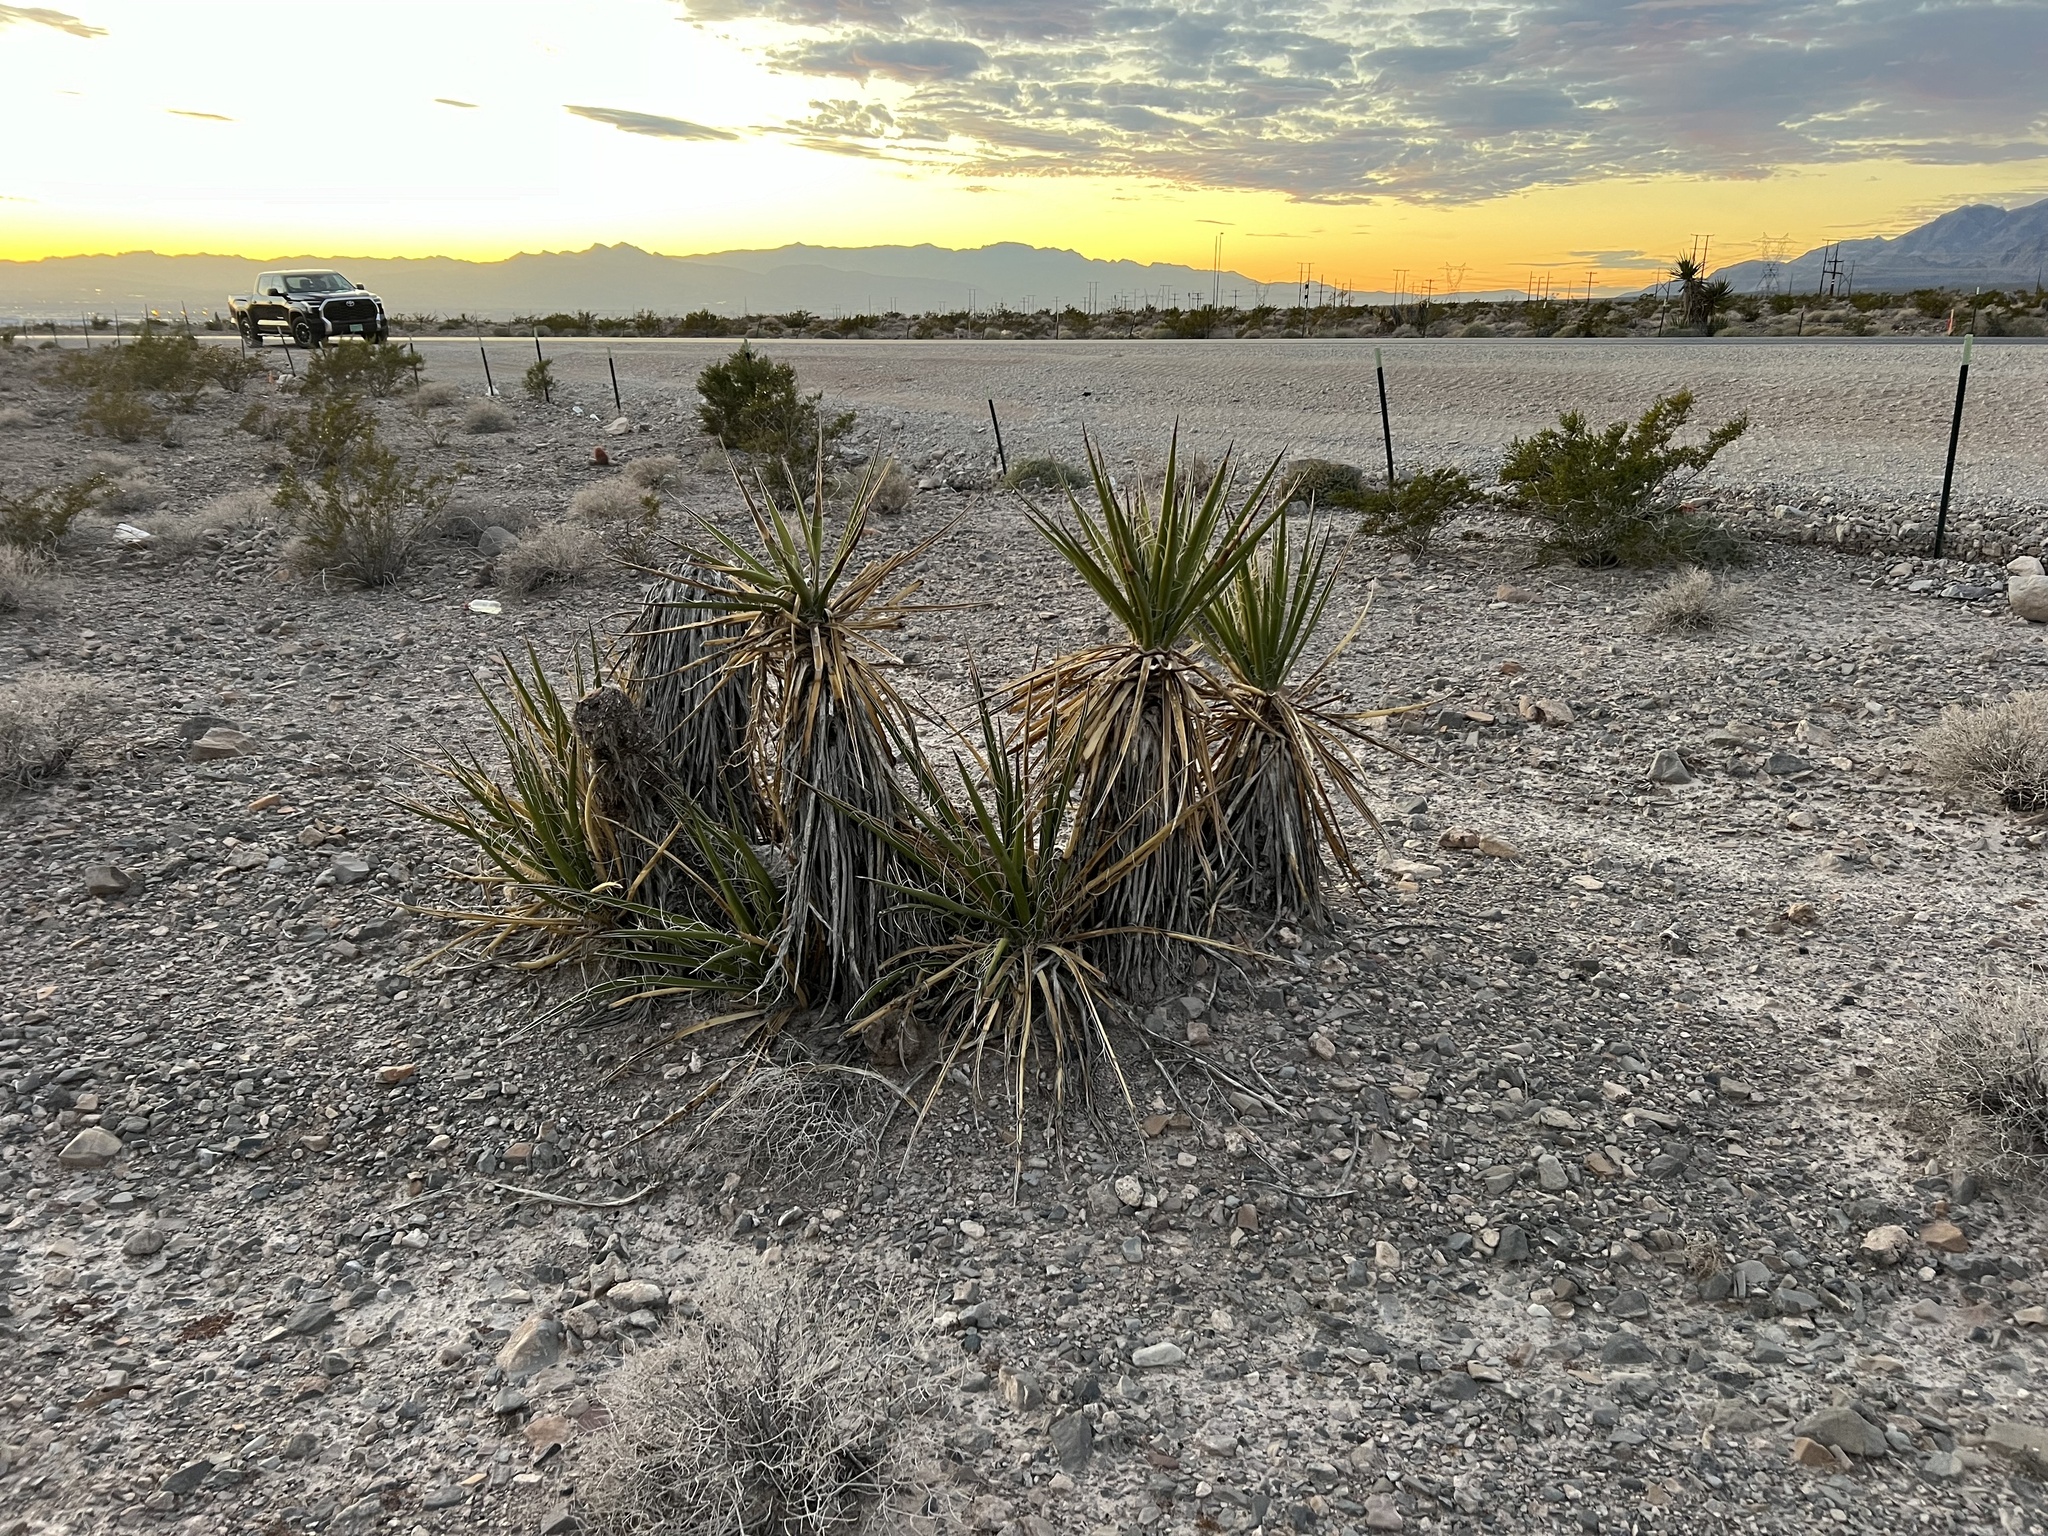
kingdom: Plantae
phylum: Tracheophyta
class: Liliopsida
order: Asparagales
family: Asparagaceae
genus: Yucca
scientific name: Yucca schidigera
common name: Mojave yucca
